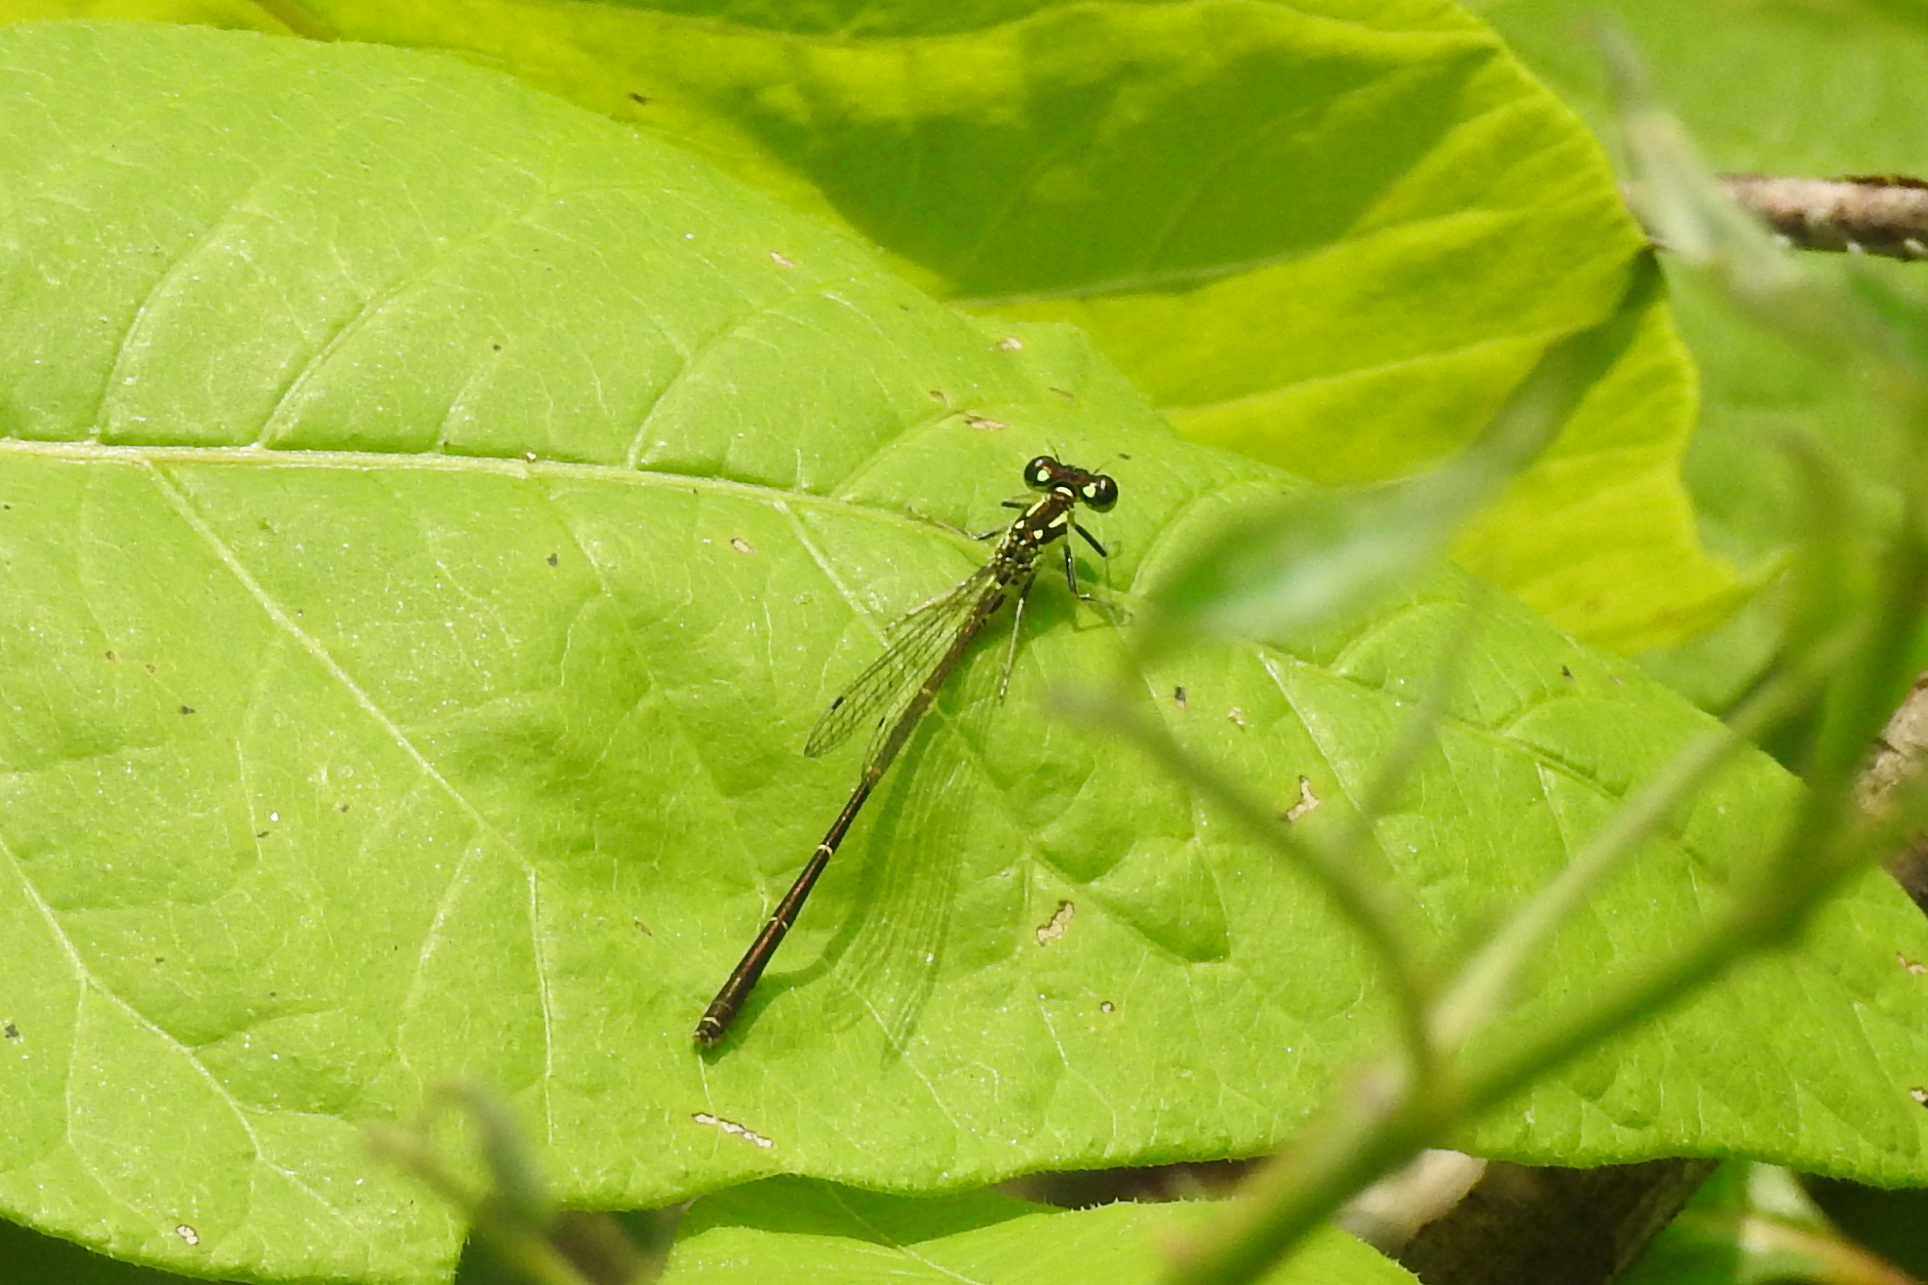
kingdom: Animalia
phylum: Arthropoda
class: Insecta
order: Odonata
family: Coenagrionidae
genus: Ischnura
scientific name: Ischnura posita
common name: Fragile forktail
